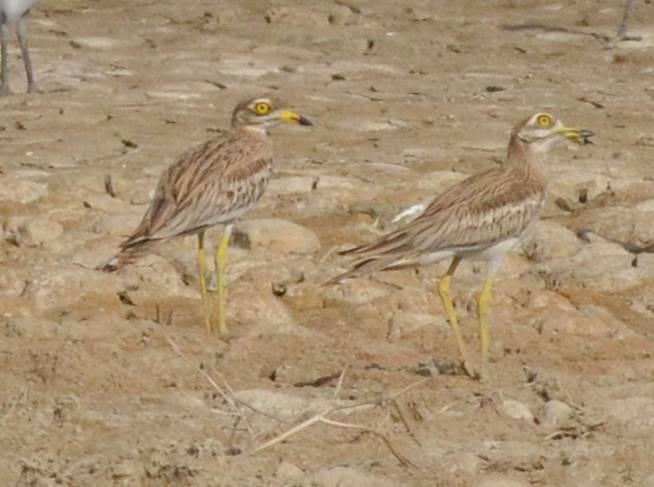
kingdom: Animalia
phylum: Chordata
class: Aves
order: Charadriiformes
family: Burhinidae
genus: Burhinus
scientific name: Burhinus oedicnemus
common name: Eurasian stone-curlew
